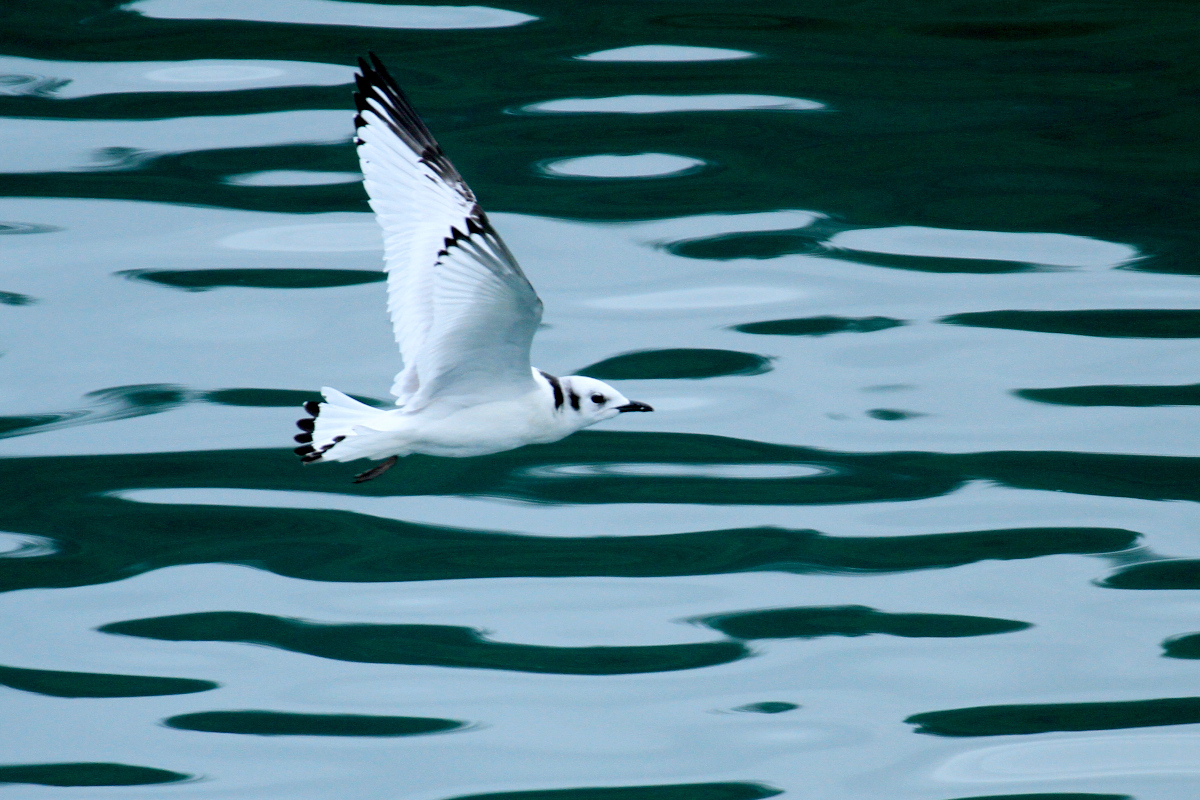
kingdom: Animalia
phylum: Chordata
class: Aves
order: Charadriiformes
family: Laridae
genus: Rissa
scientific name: Rissa tridactyla
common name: Black-legged kittiwake
